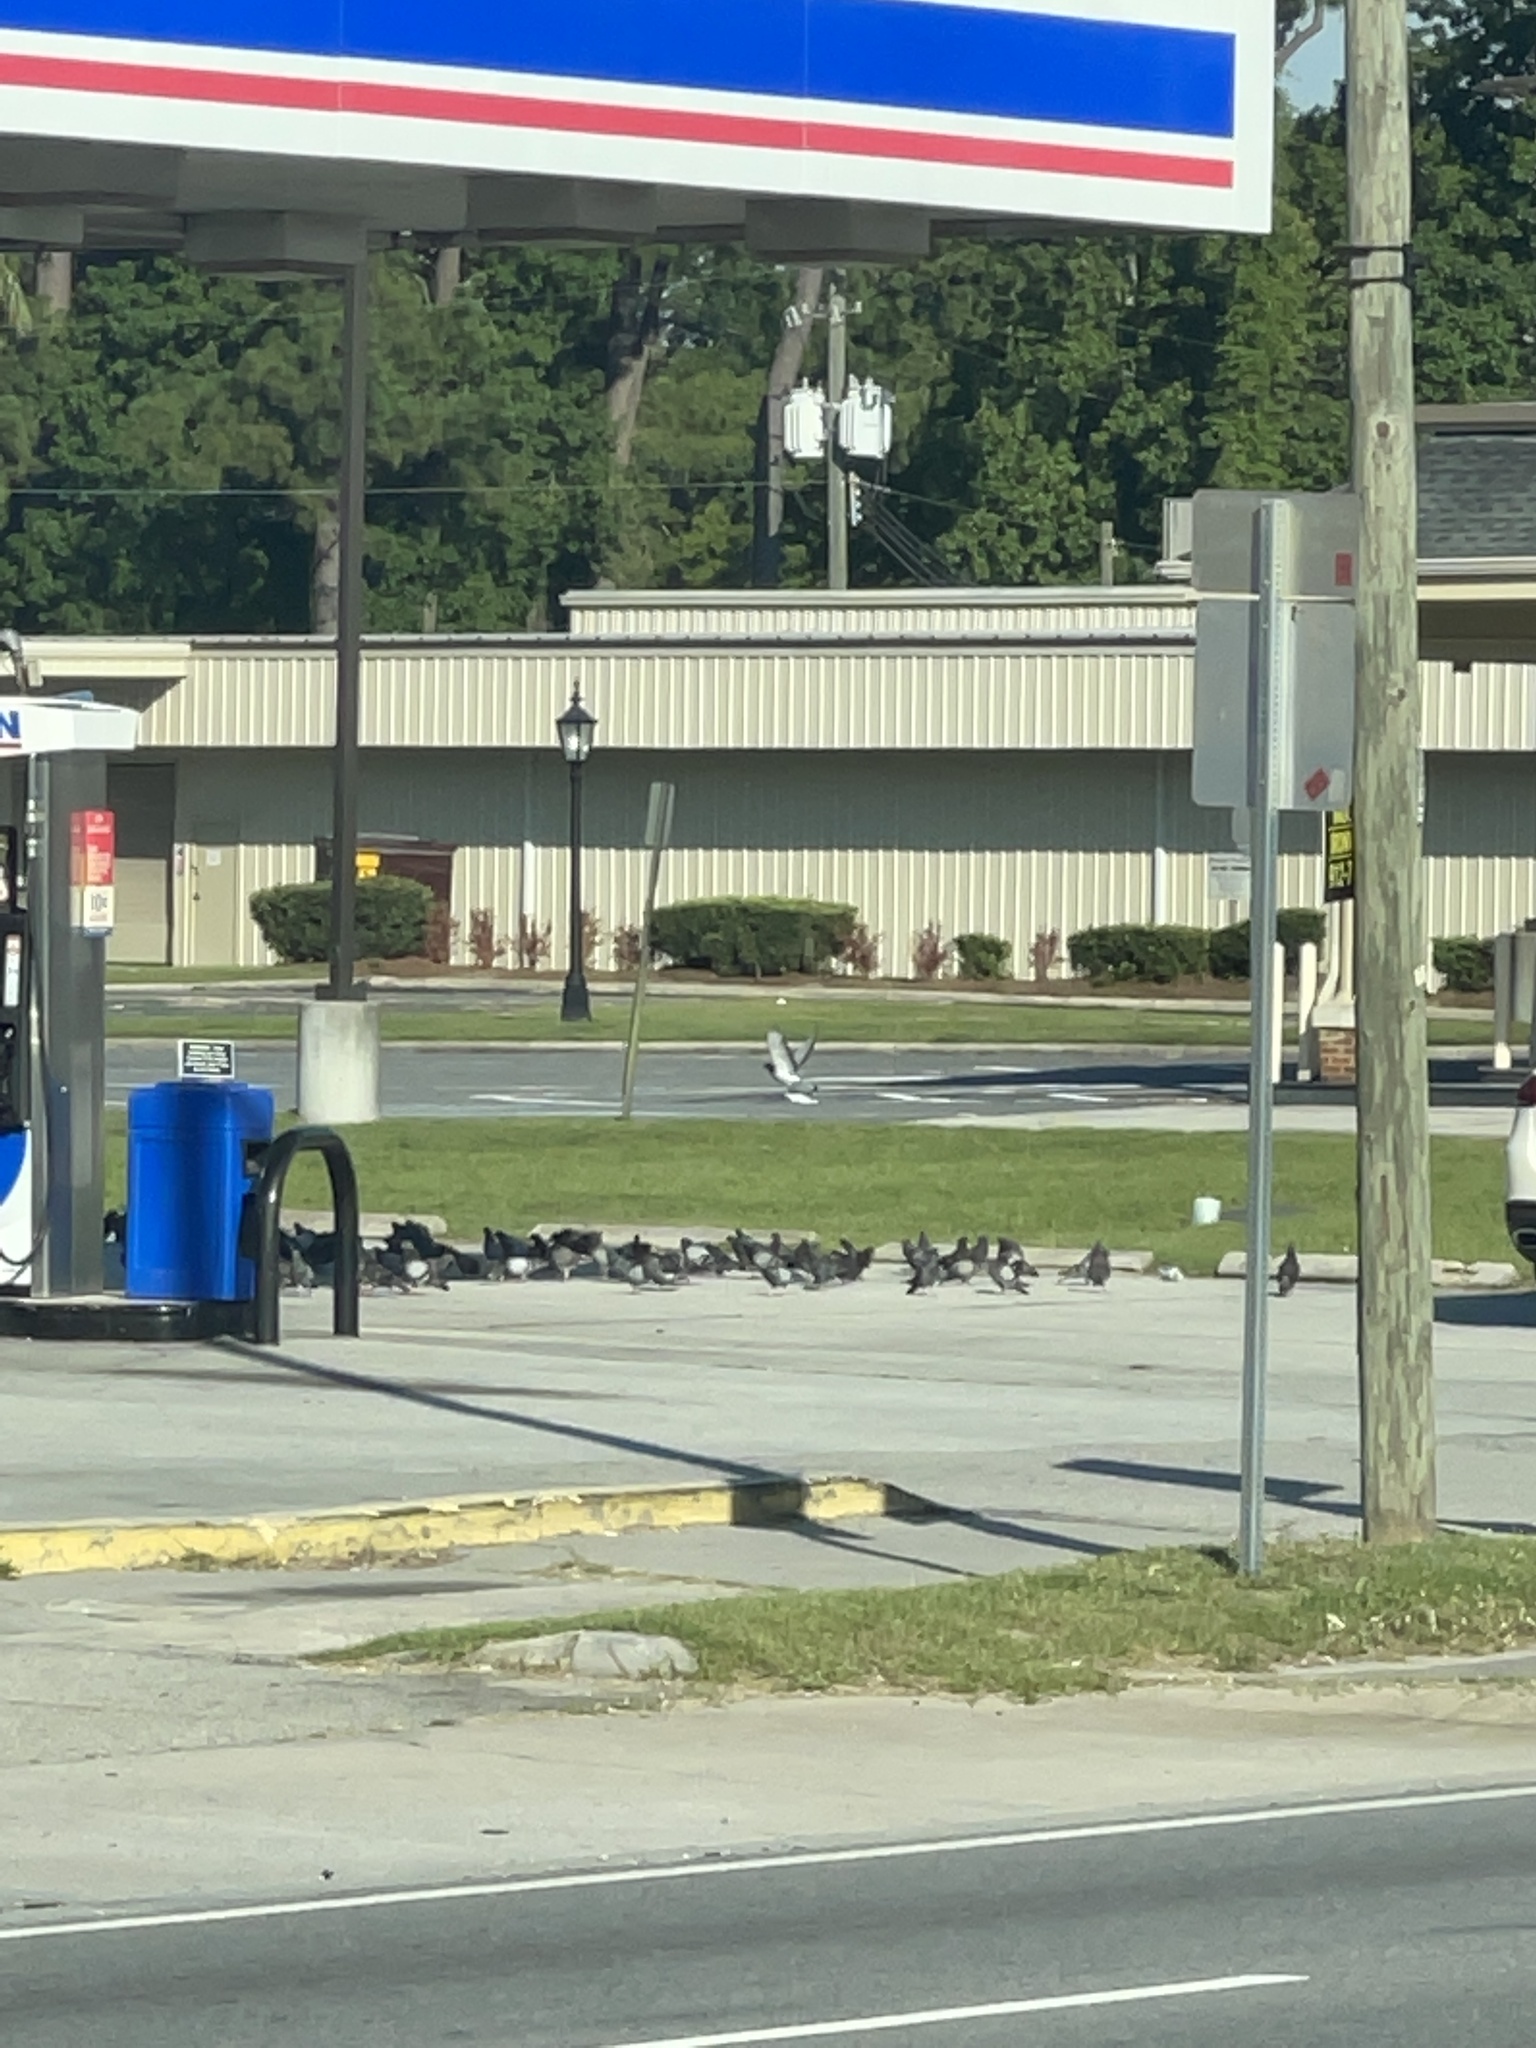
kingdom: Animalia
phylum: Chordata
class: Aves
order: Columbiformes
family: Columbidae
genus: Columba
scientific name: Columba livia
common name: Rock pigeon
